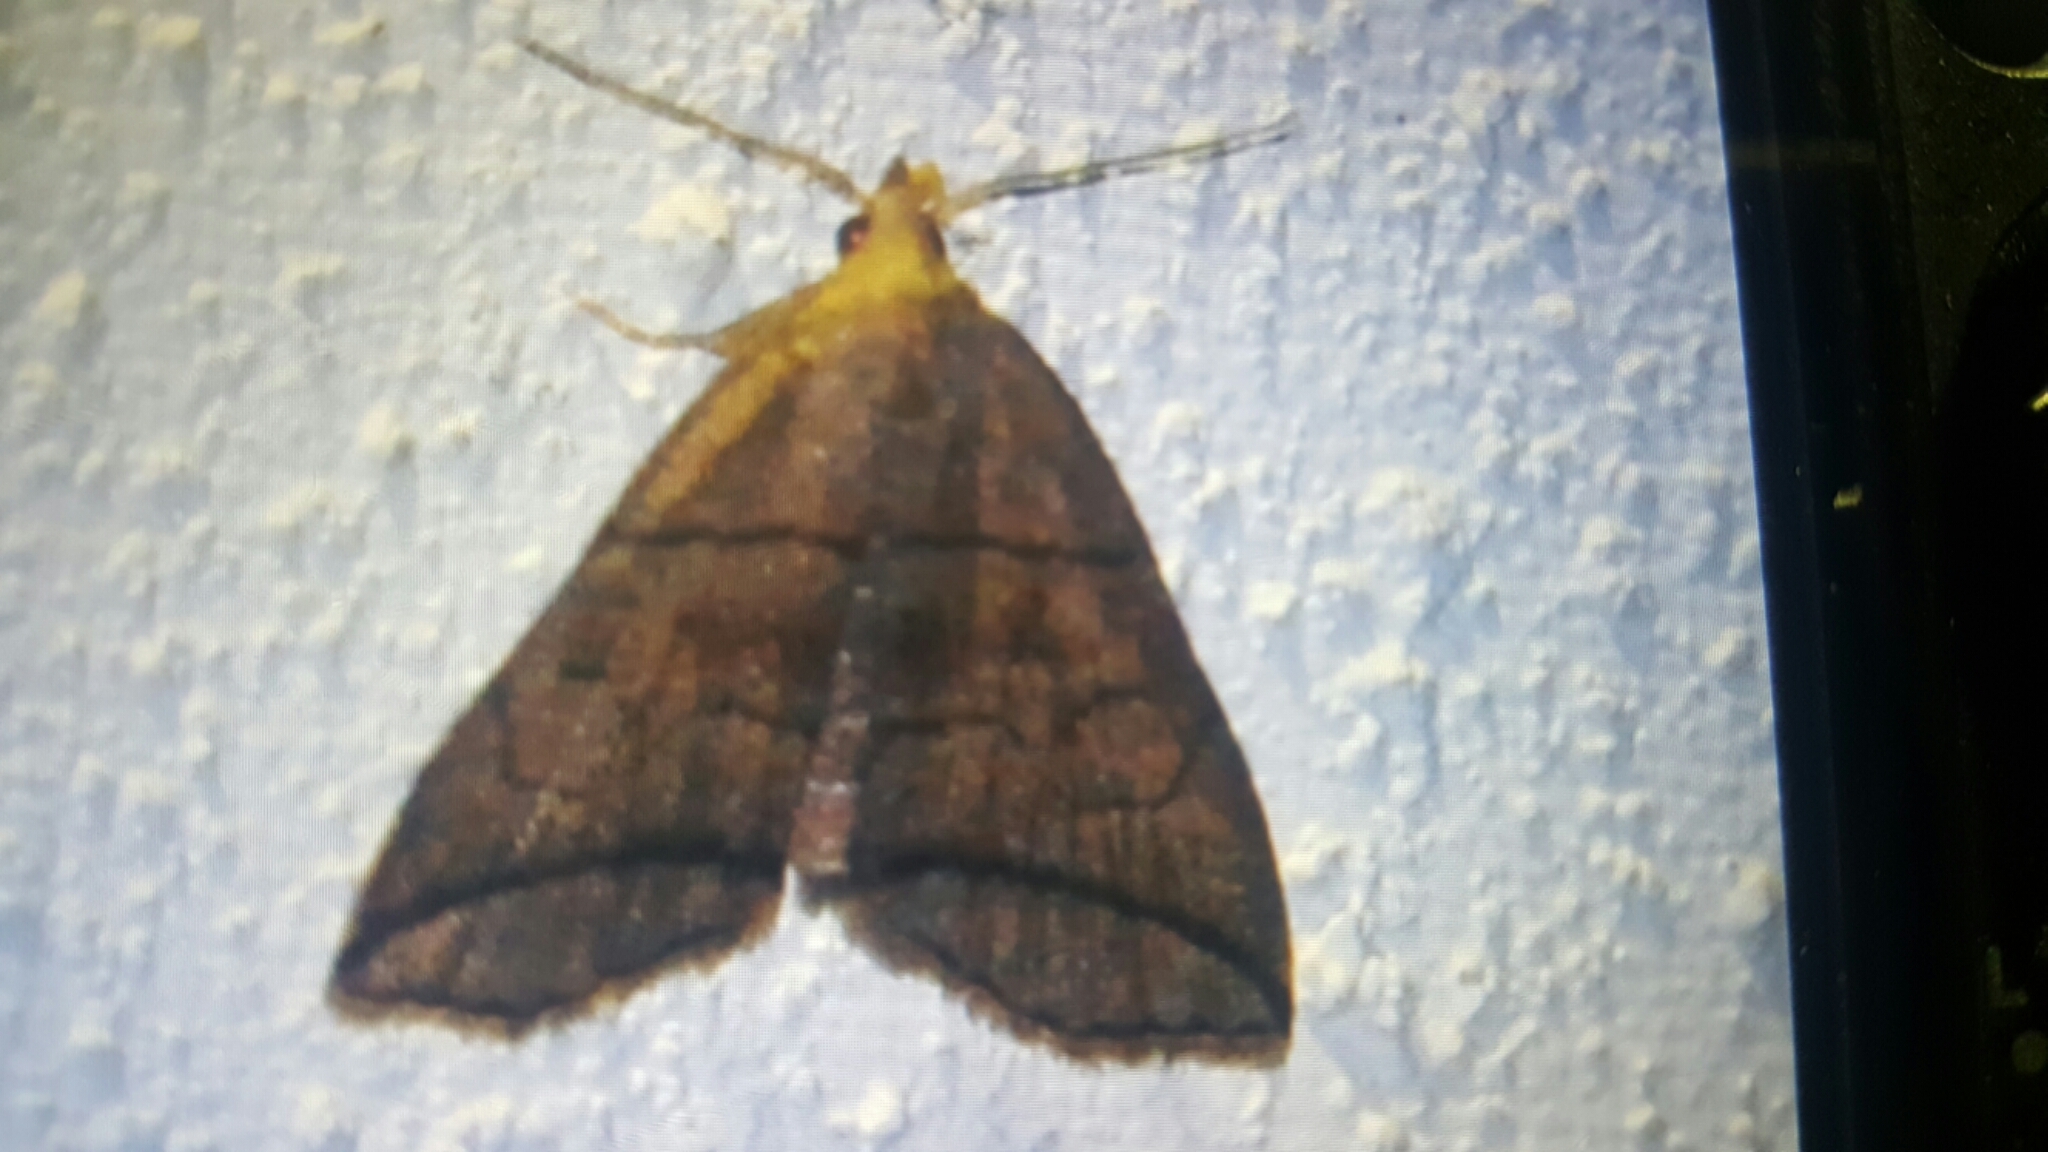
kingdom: Animalia
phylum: Arthropoda
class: Insecta
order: Lepidoptera
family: Erebidae
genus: Herminia
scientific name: Herminia grisealis
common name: Small fan-foot
